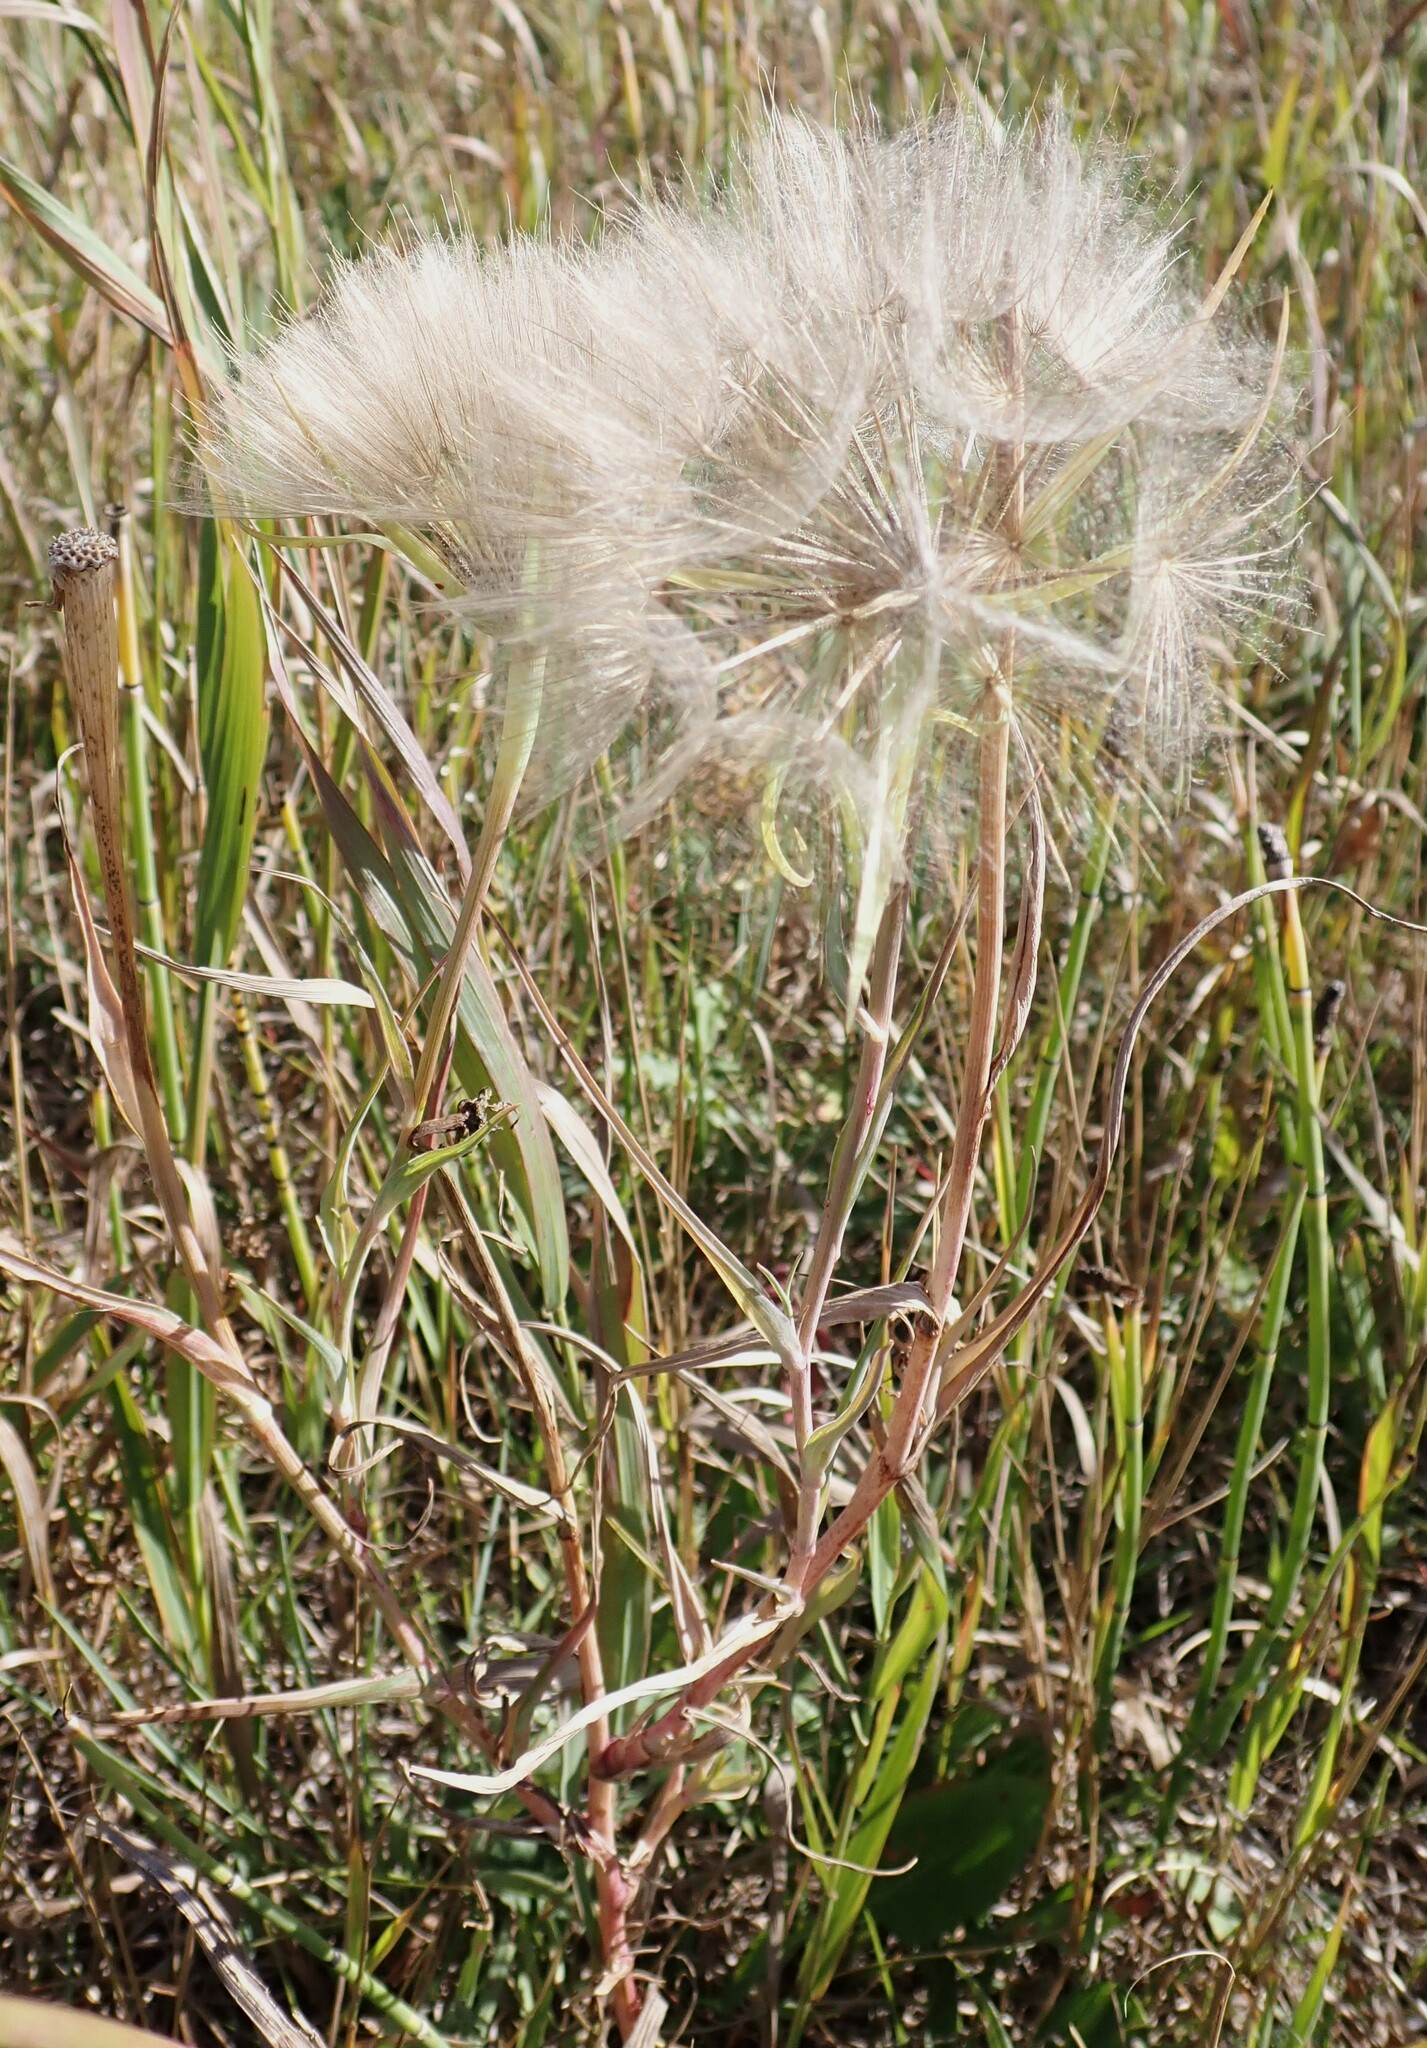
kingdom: Plantae
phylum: Tracheophyta
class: Magnoliopsida
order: Asterales
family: Asteraceae
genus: Tragopogon
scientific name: Tragopogon dubius
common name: Yellow salsify
